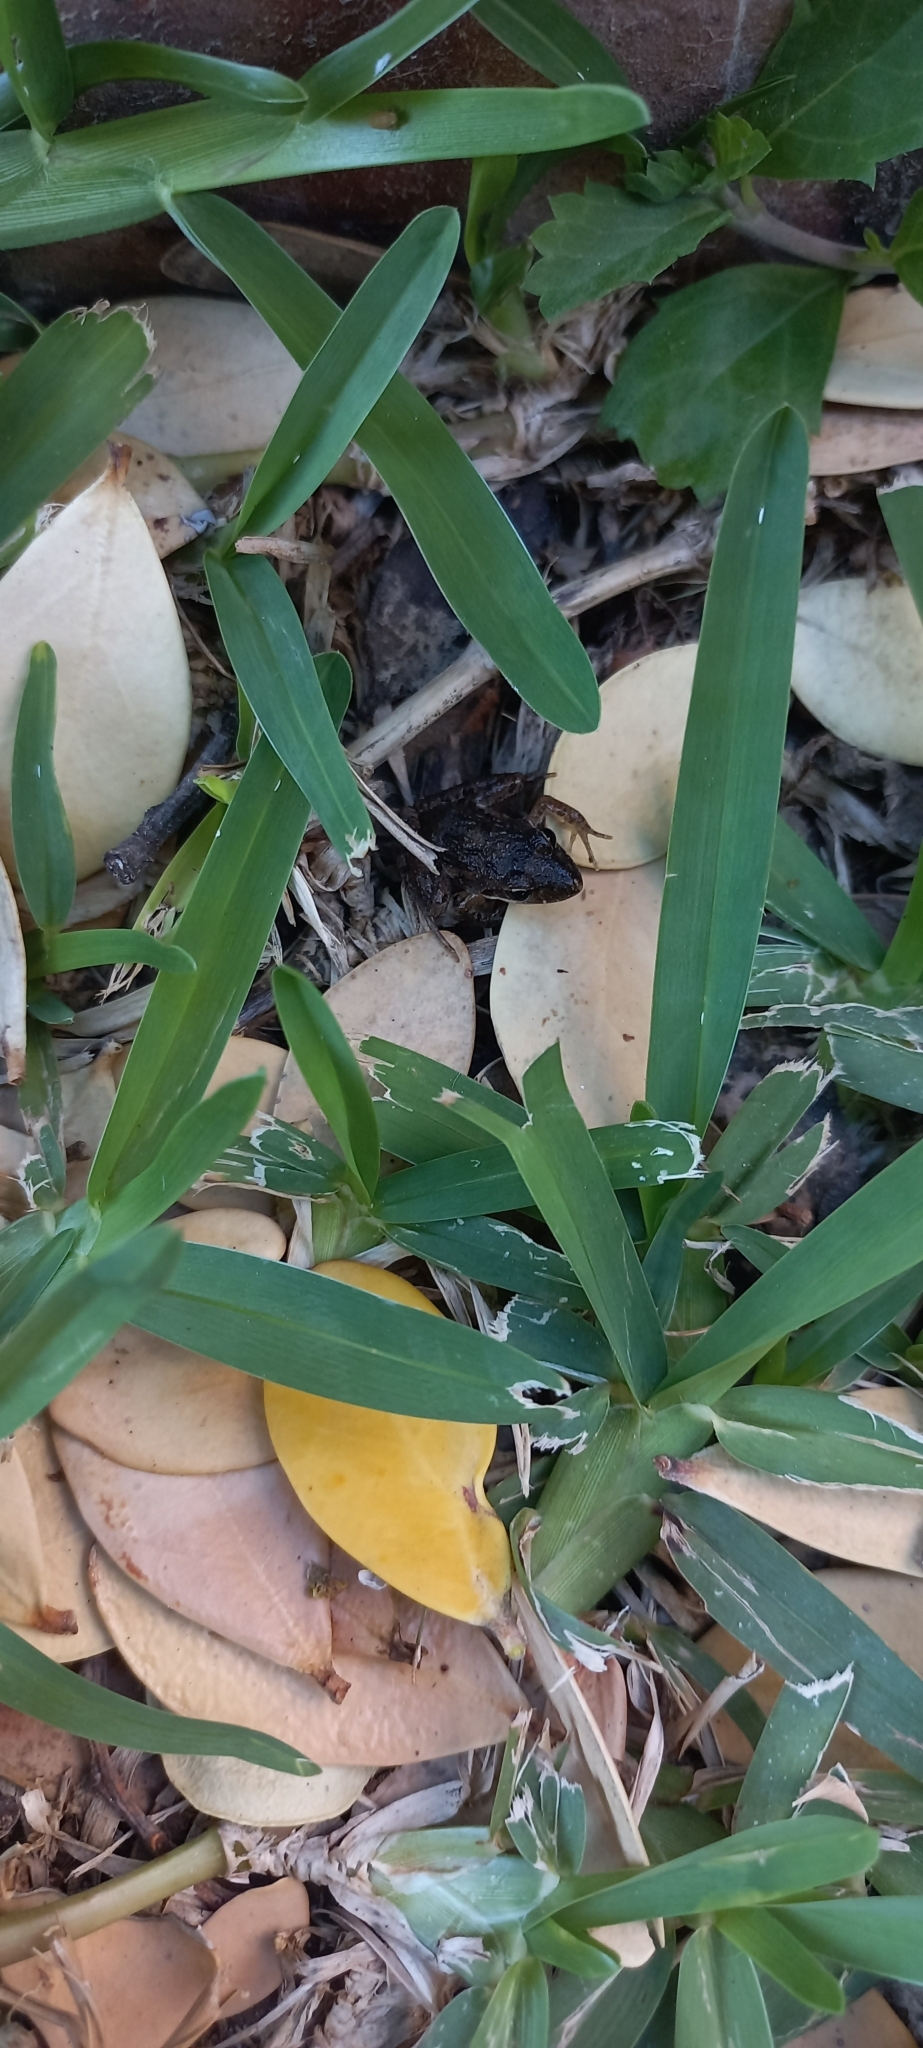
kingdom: Animalia
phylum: Chordata
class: Amphibia
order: Anura
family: Pyxicephalidae
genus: Strongylopus
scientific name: Strongylopus grayii
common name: Gray's stream frog
